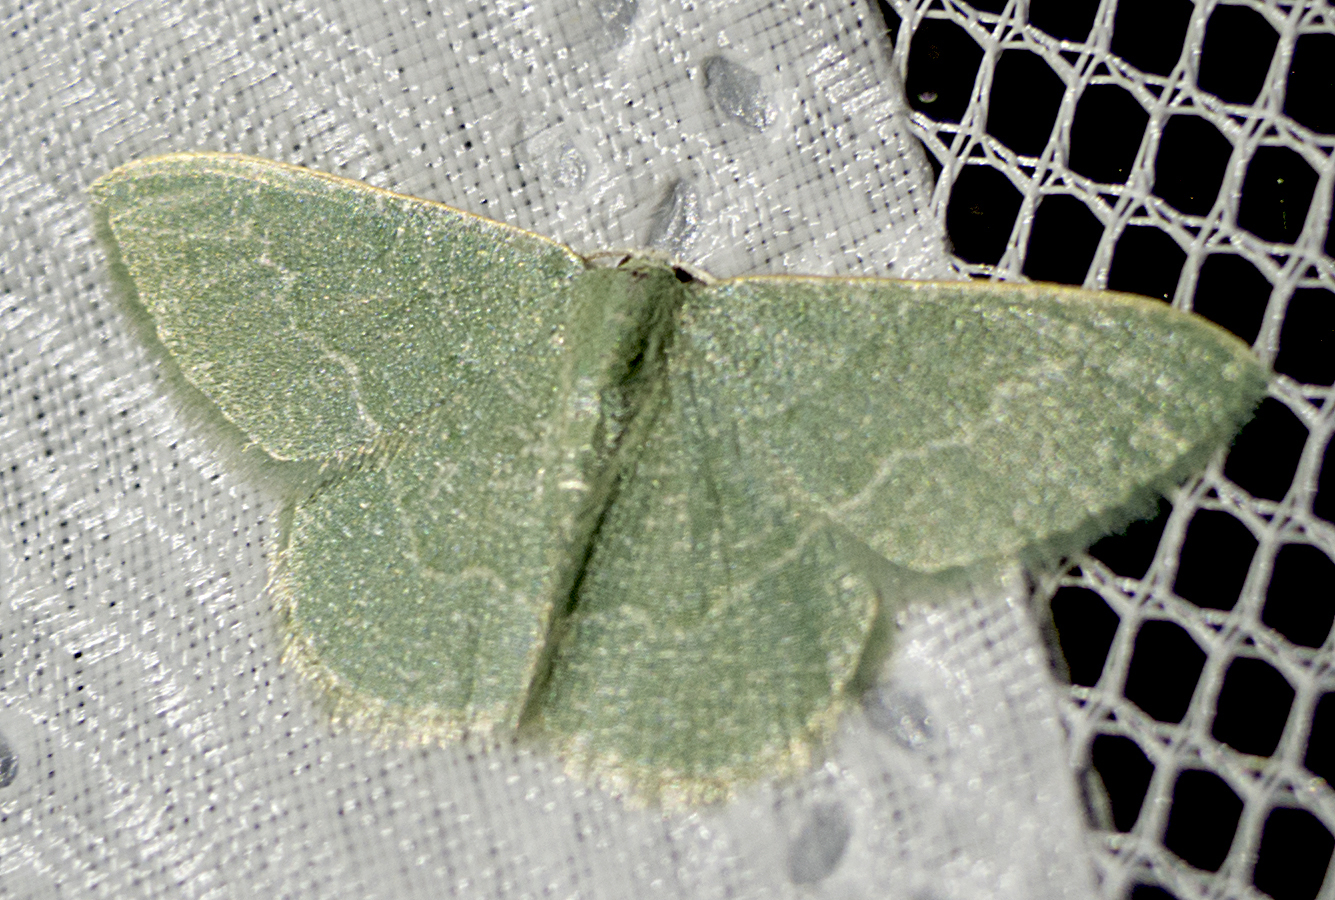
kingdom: Animalia
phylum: Arthropoda
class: Insecta
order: Lepidoptera
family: Geometridae
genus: Chlorissa
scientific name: Chlorissa etruscaria
